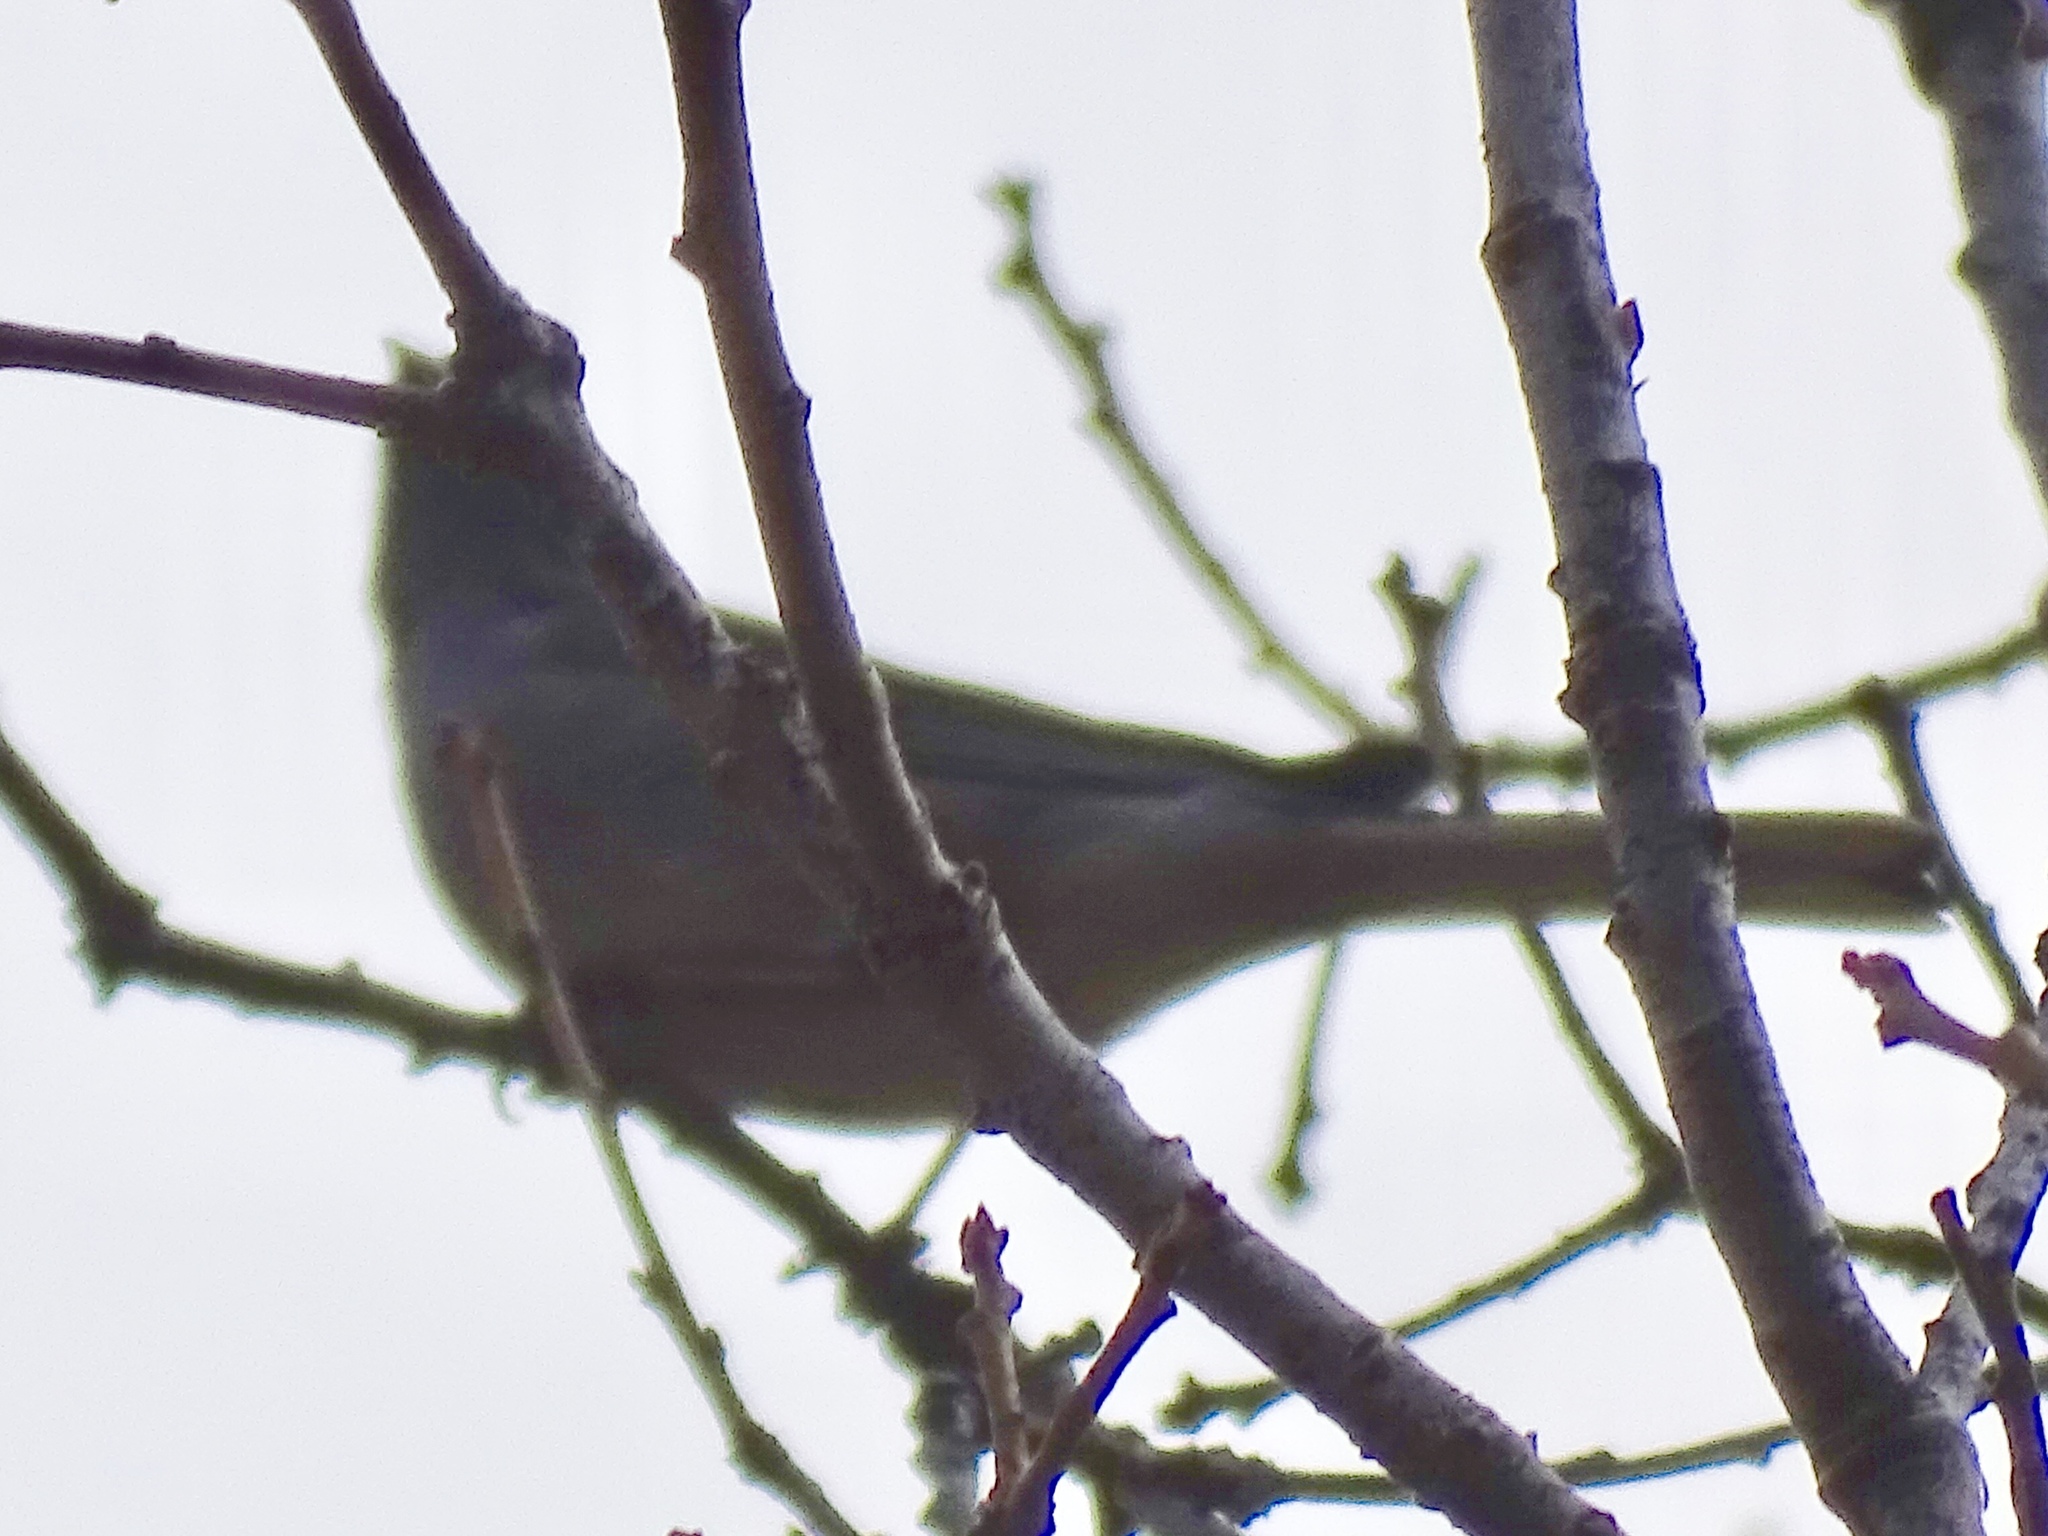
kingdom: Animalia
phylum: Chordata
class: Aves
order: Passeriformes
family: Passerellidae
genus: Junco
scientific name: Junco hyemalis
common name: Dark-eyed junco
